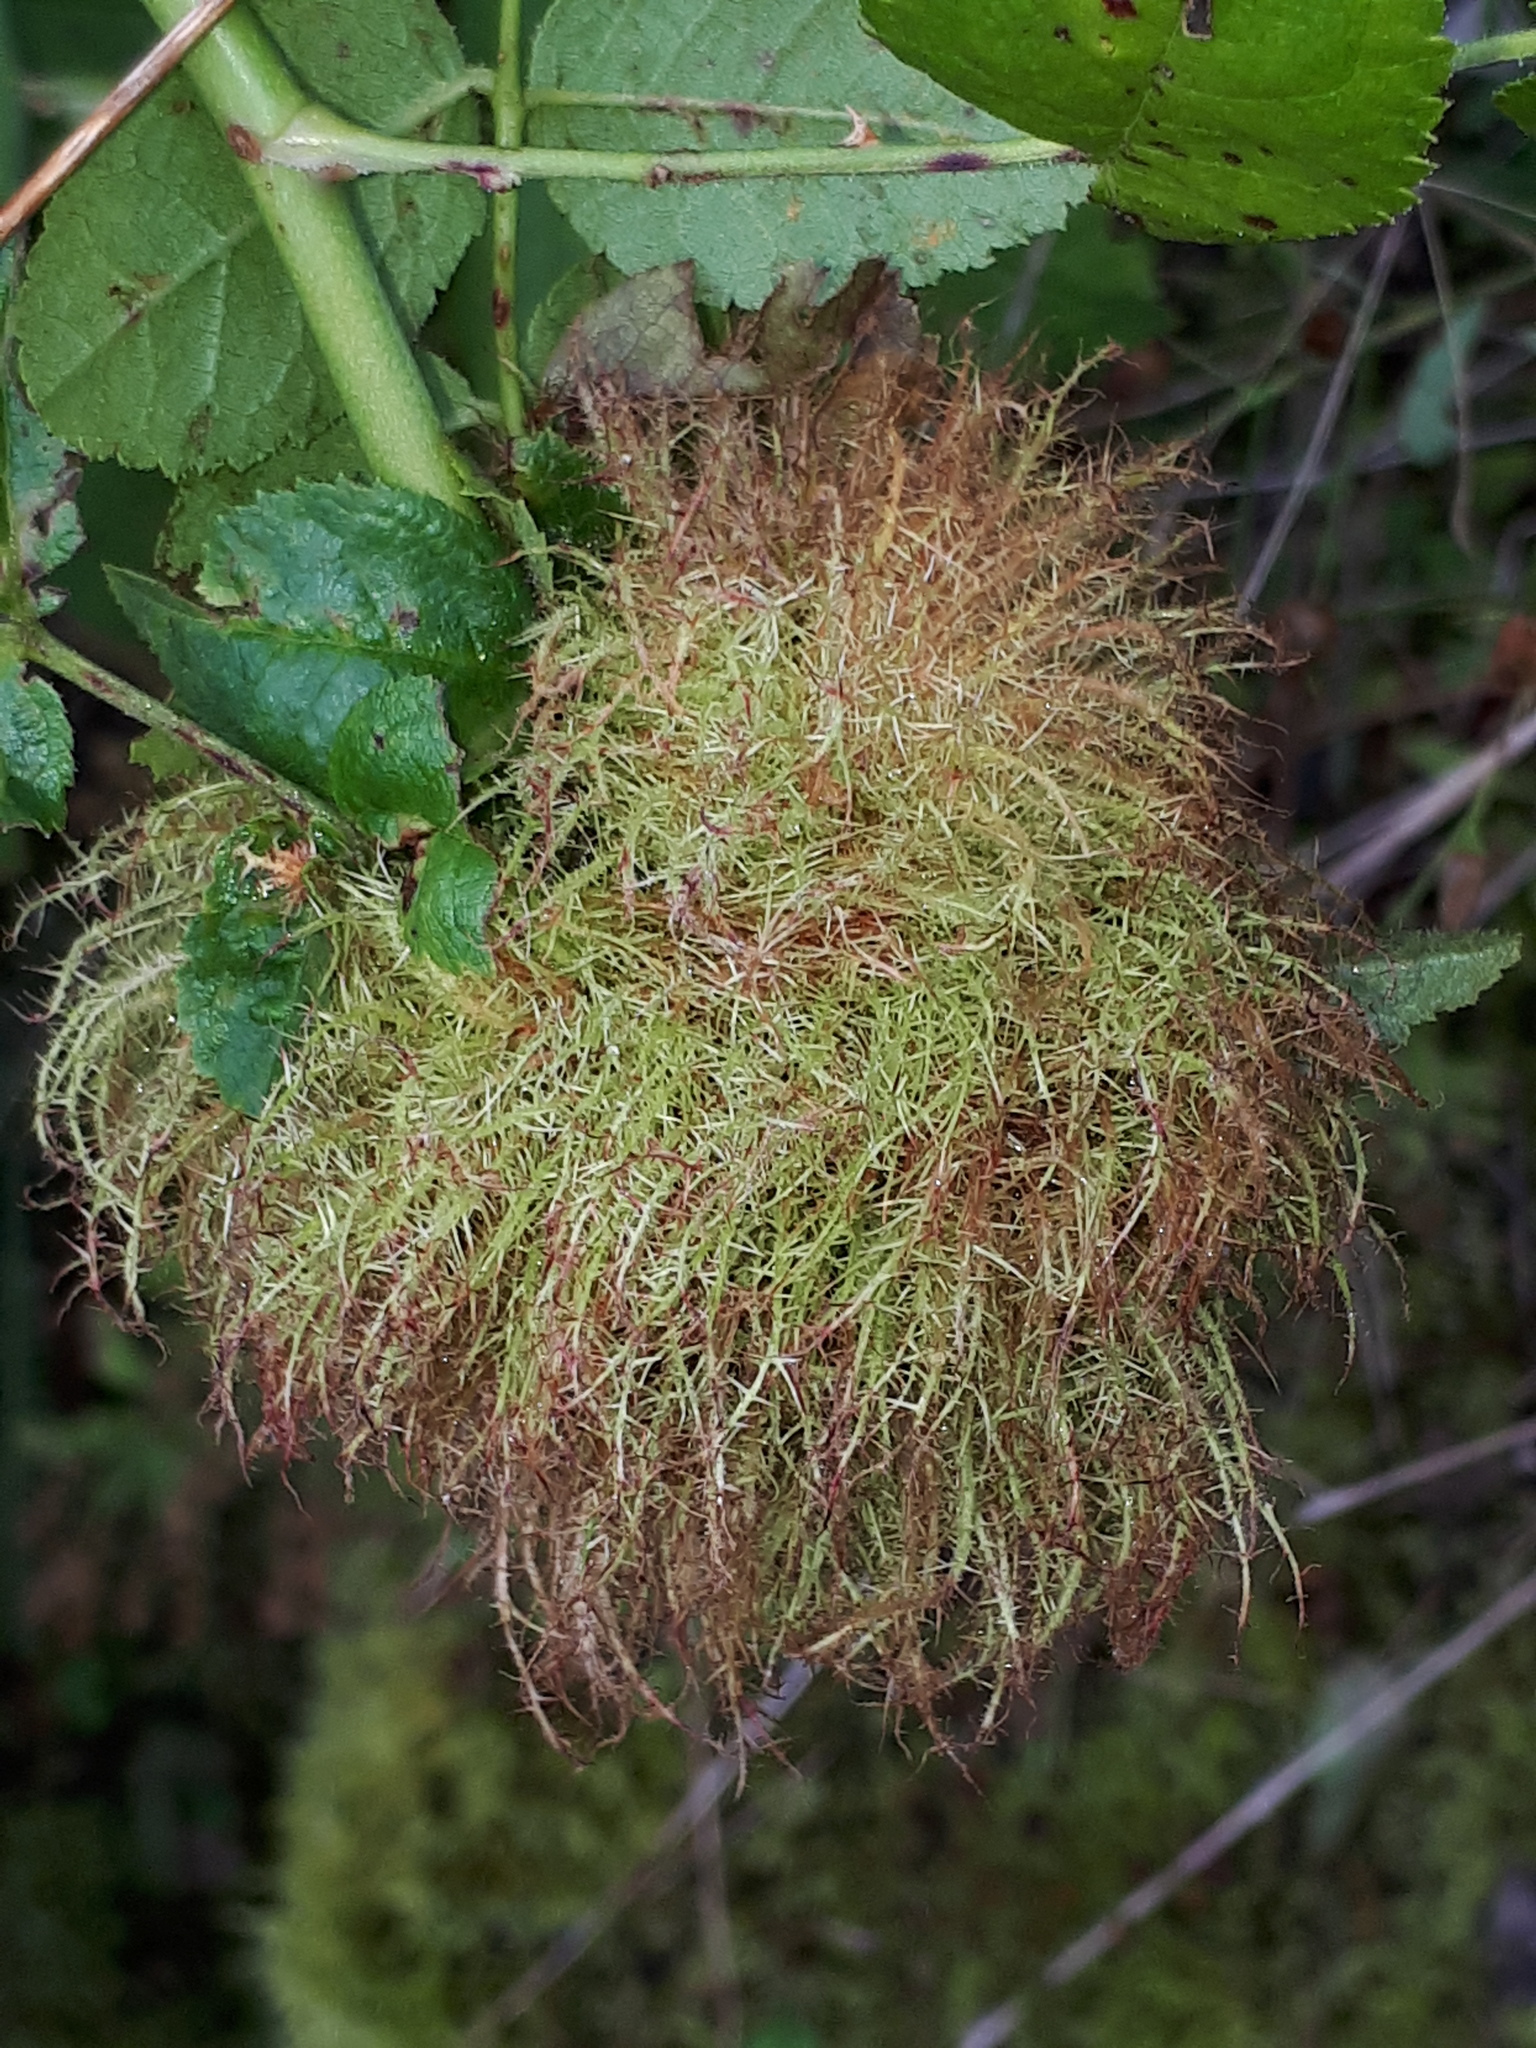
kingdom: Animalia
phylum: Arthropoda
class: Insecta
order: Hymenoptera
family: Cynipidae
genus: Diplolepis
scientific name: Diplolepis rosae
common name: Bedeguar gall
